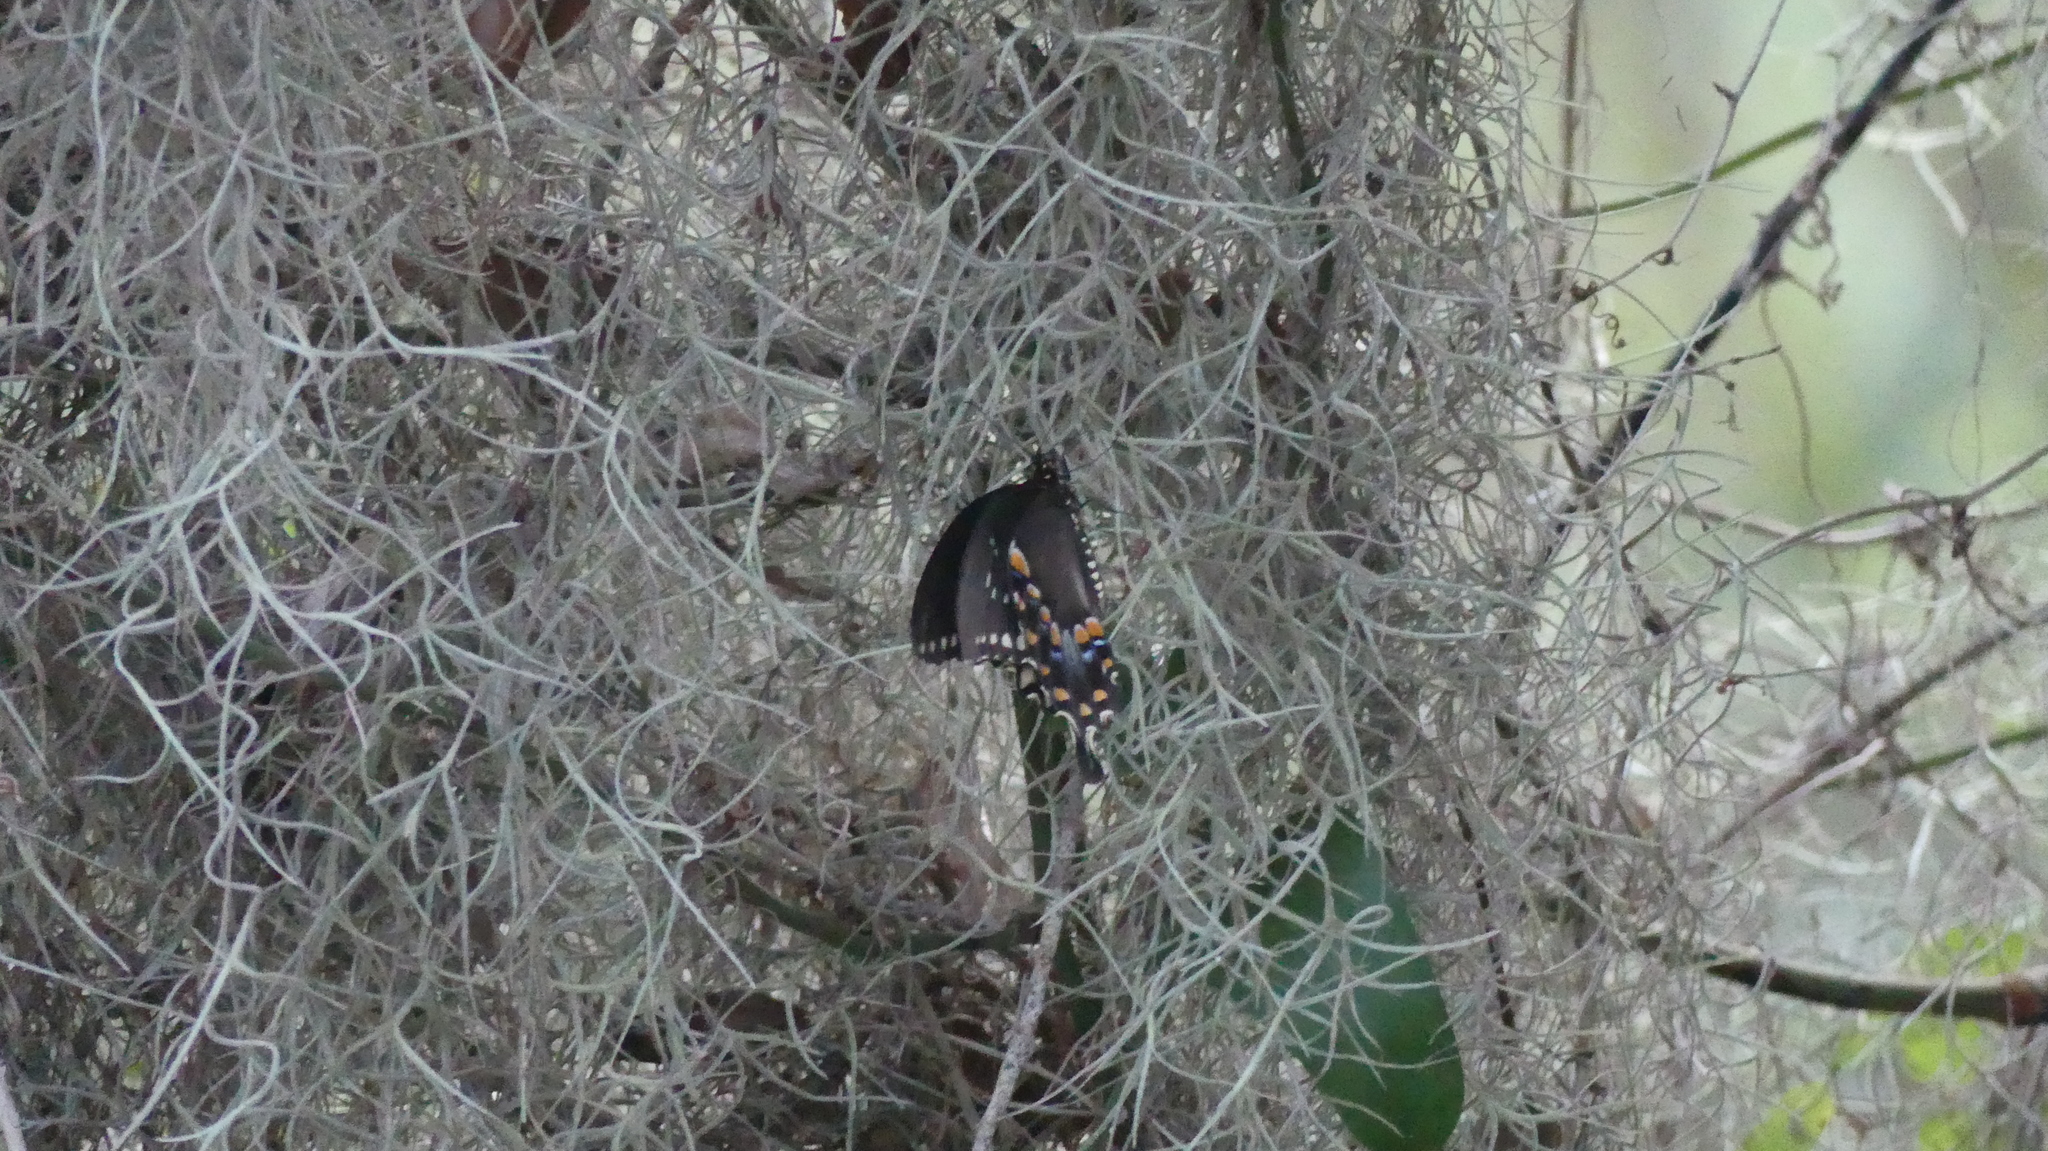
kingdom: Animalia
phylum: Arthropoda
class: Insecta
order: Lepidoptera
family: Papilionidae
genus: Papilio
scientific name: Papilio troilus
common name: Spicebush swallowtail
